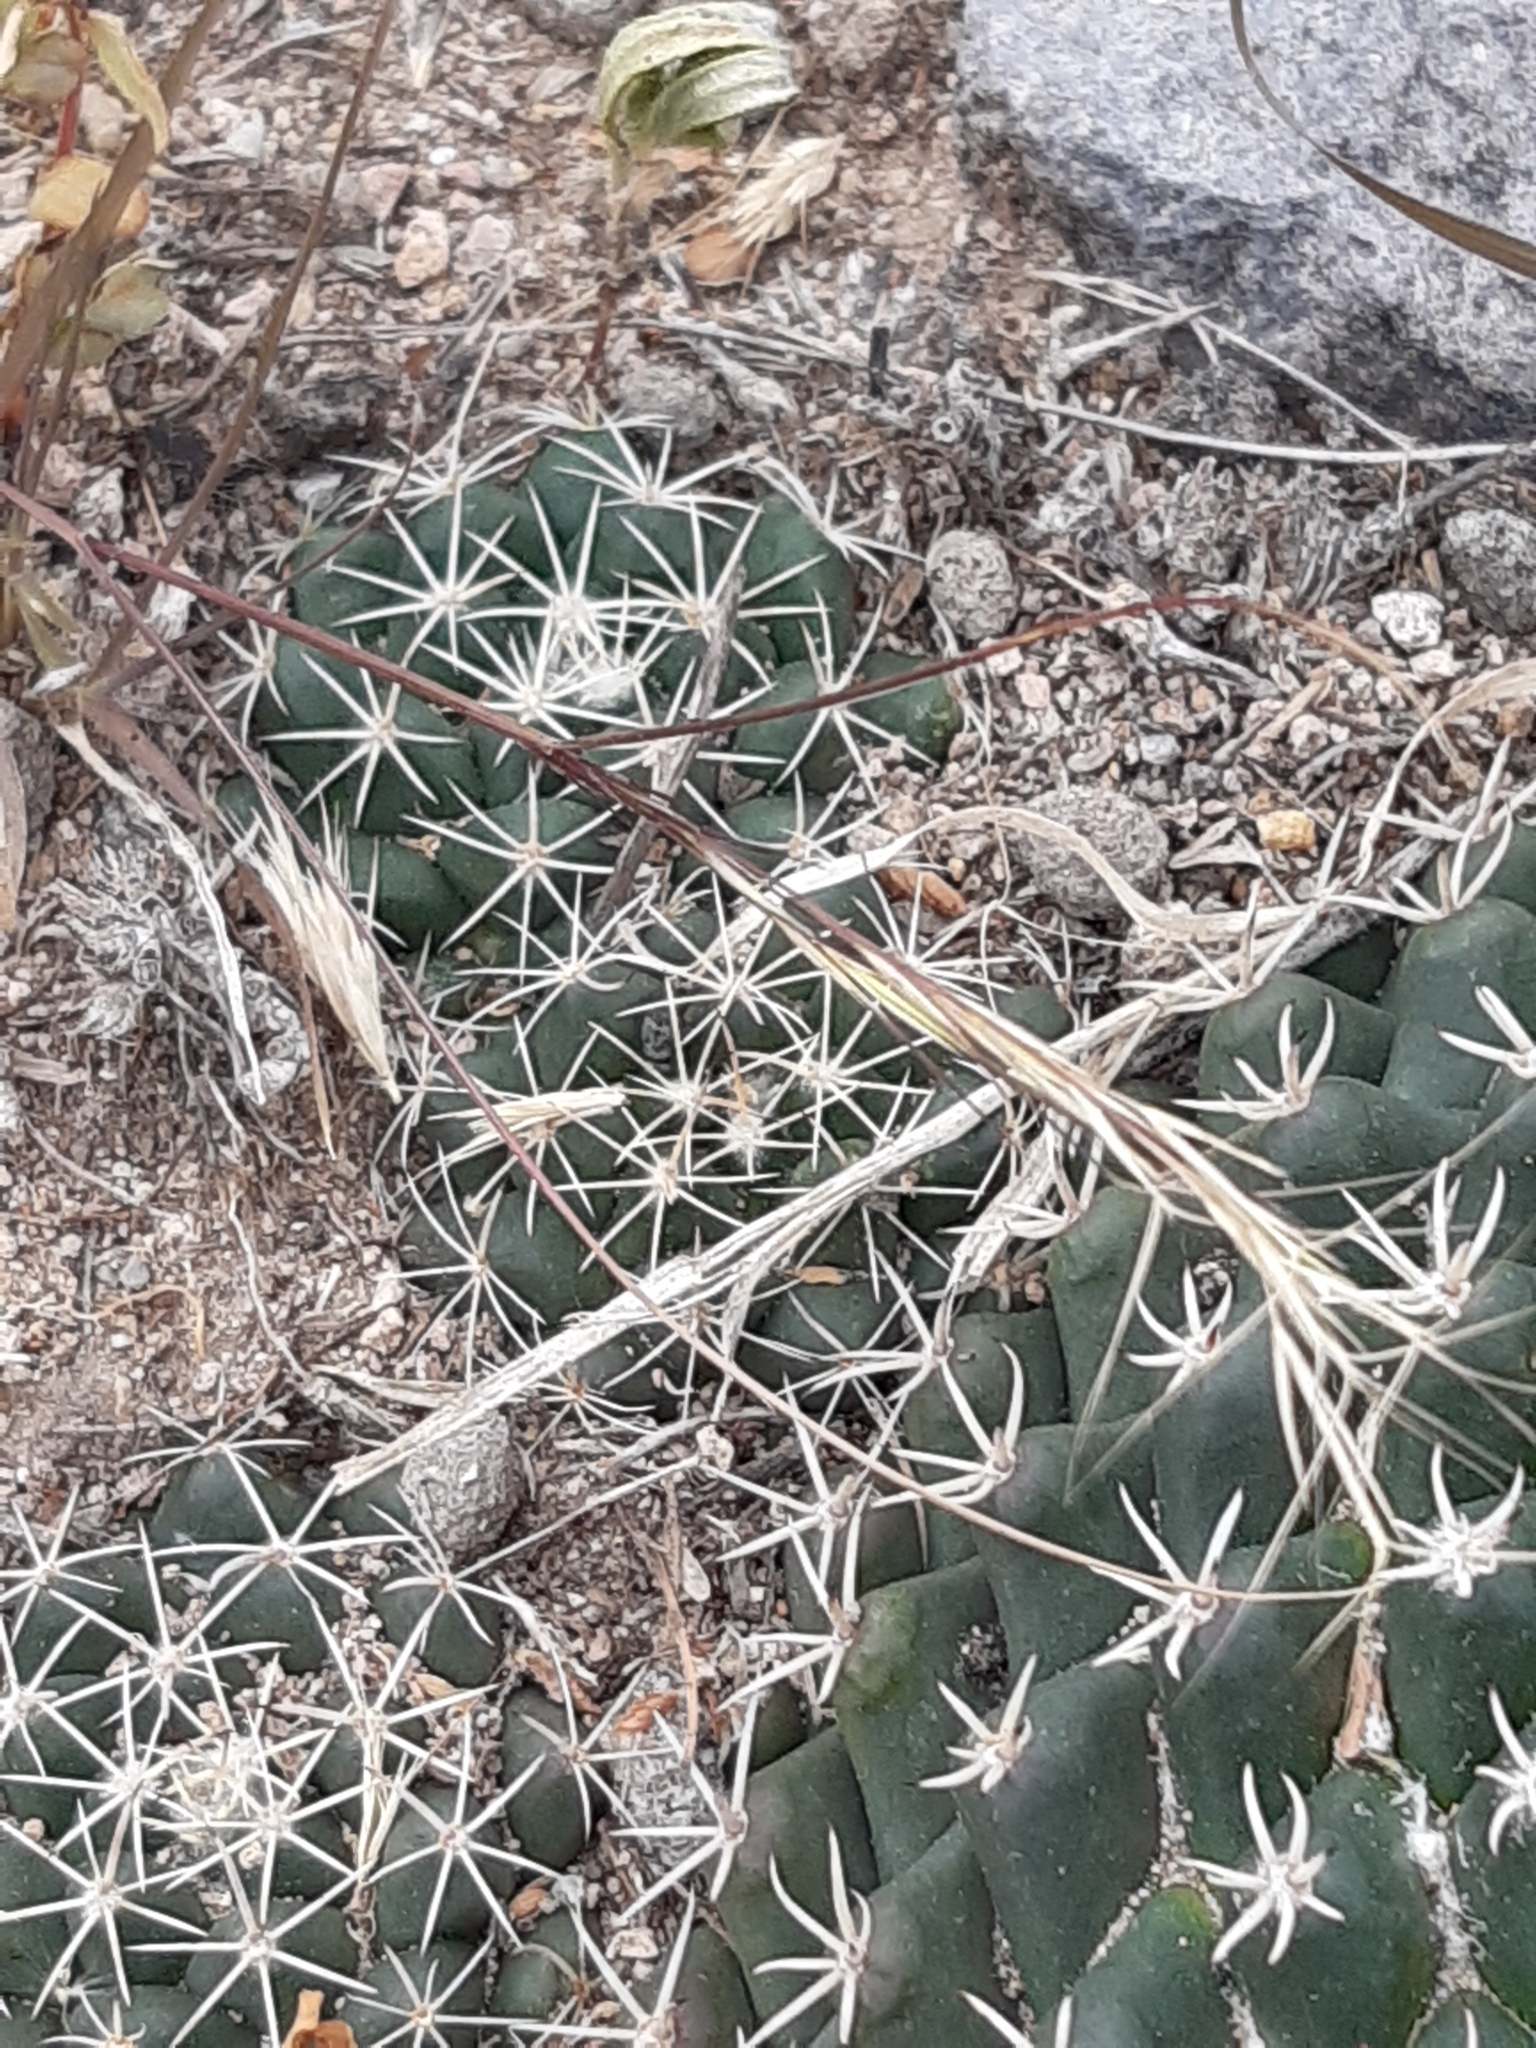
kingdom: Plantae
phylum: Tracheophyta
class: Magnoliopsida
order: Caryophyllales
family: Cactaceae
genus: Mammillaria
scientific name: Mammillaria uncinata
